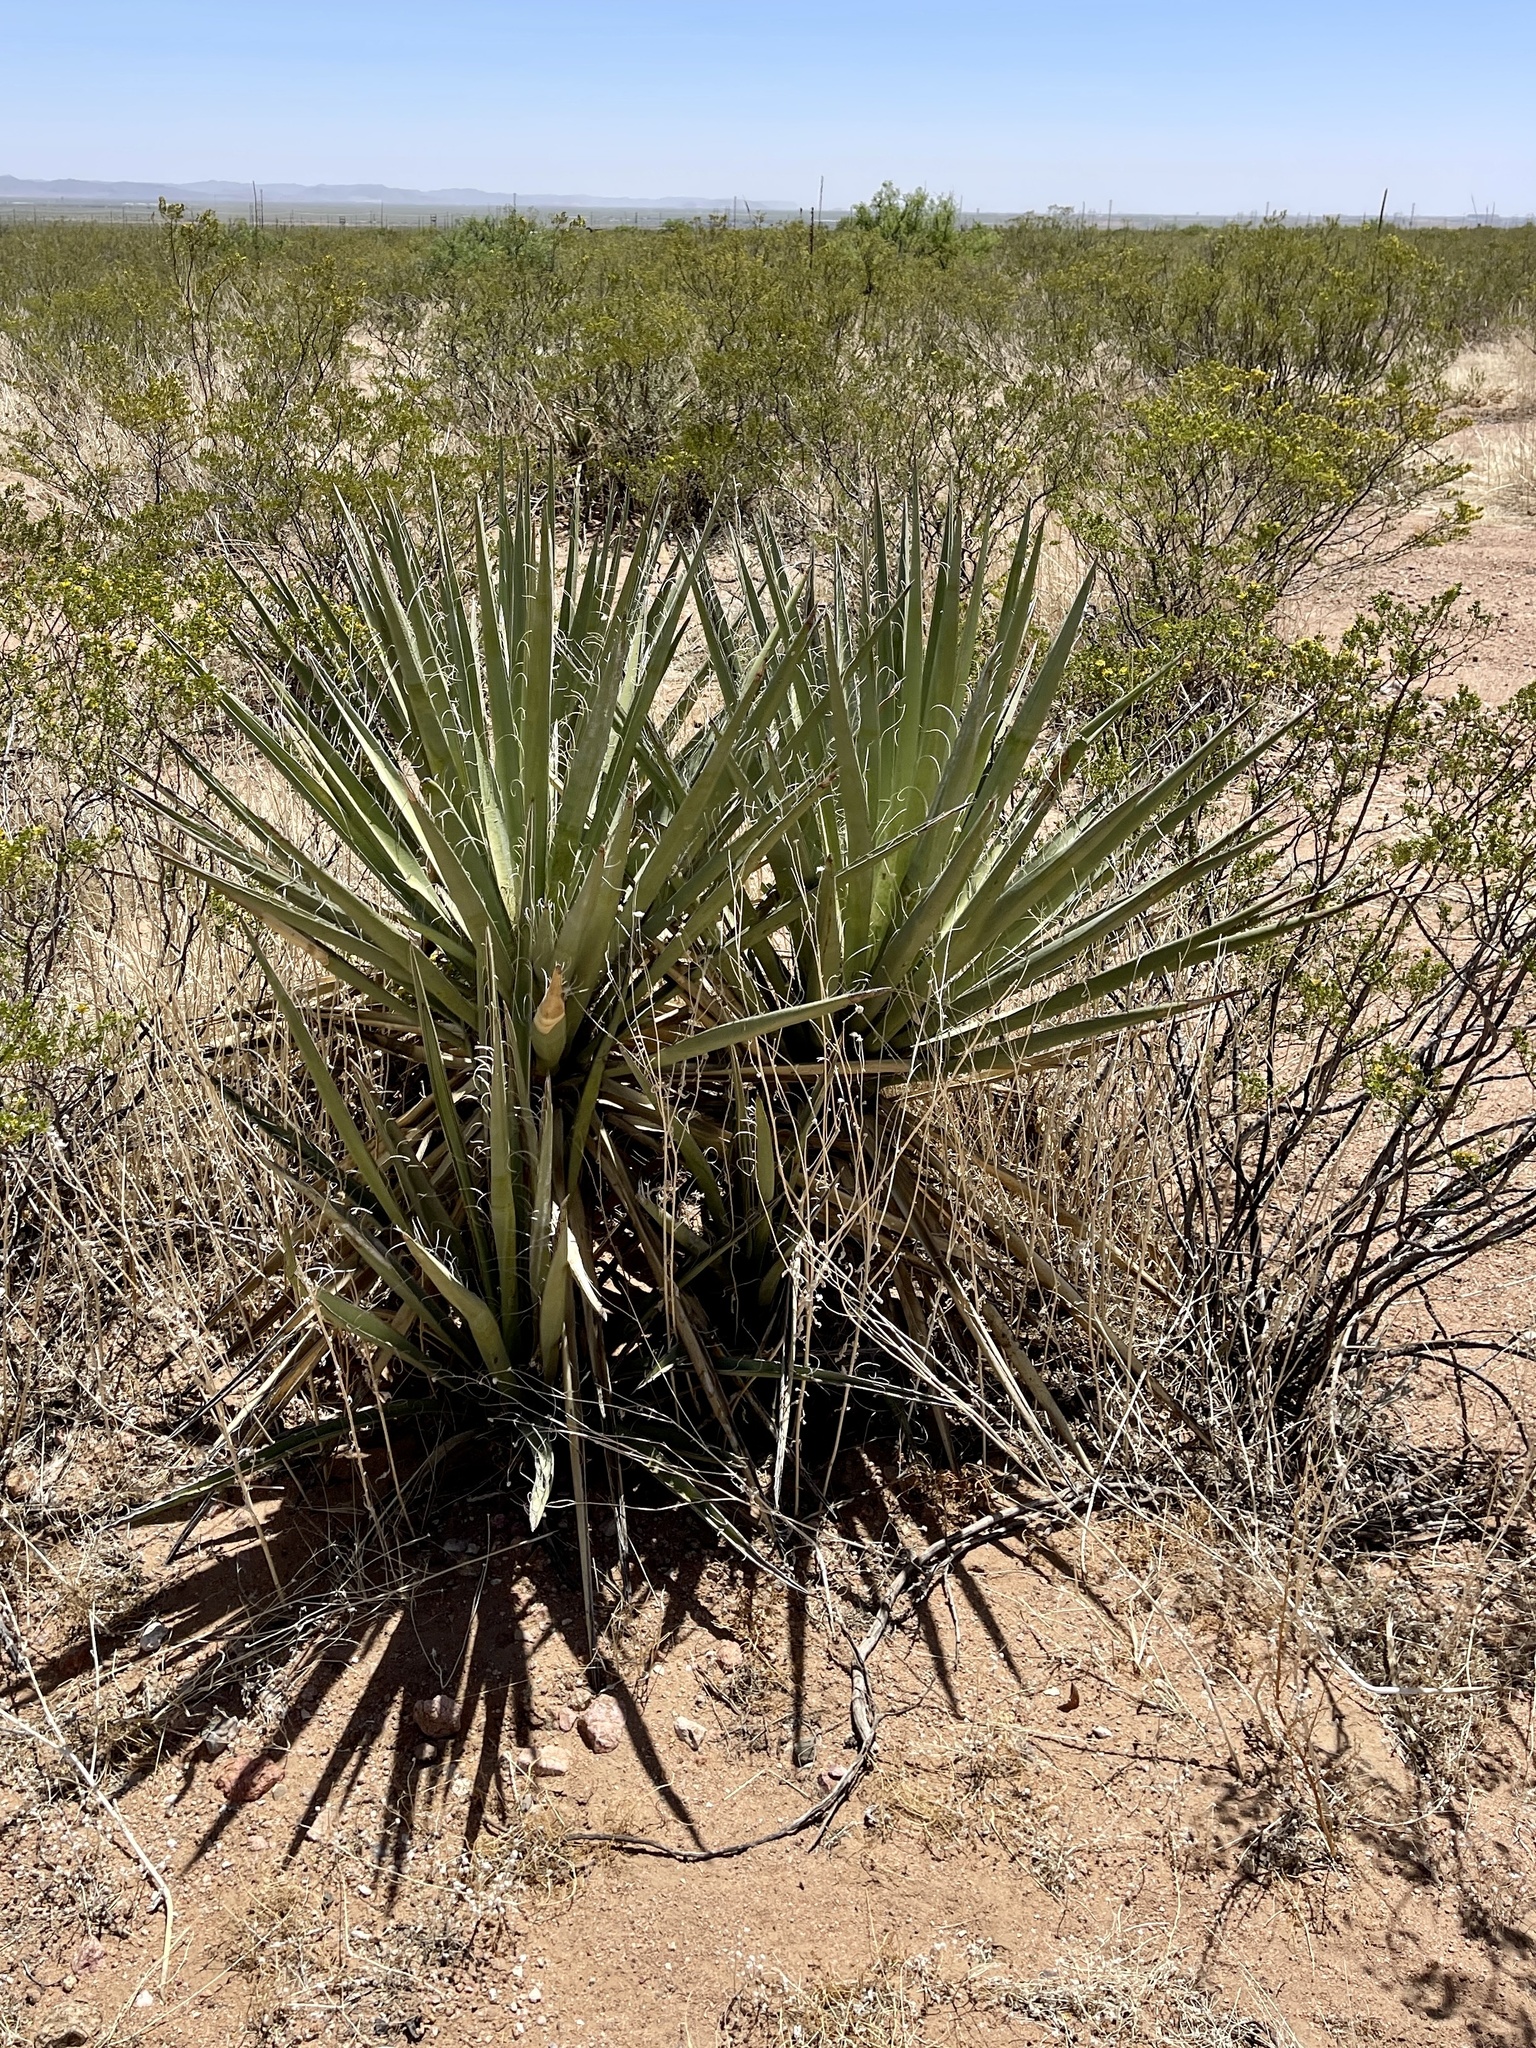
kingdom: Plantae
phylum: Tracheophyta
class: Liliopsida
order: Asparagales
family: Asparagaceae
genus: Yucca
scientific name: Yucca baccata
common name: Banana yucca
